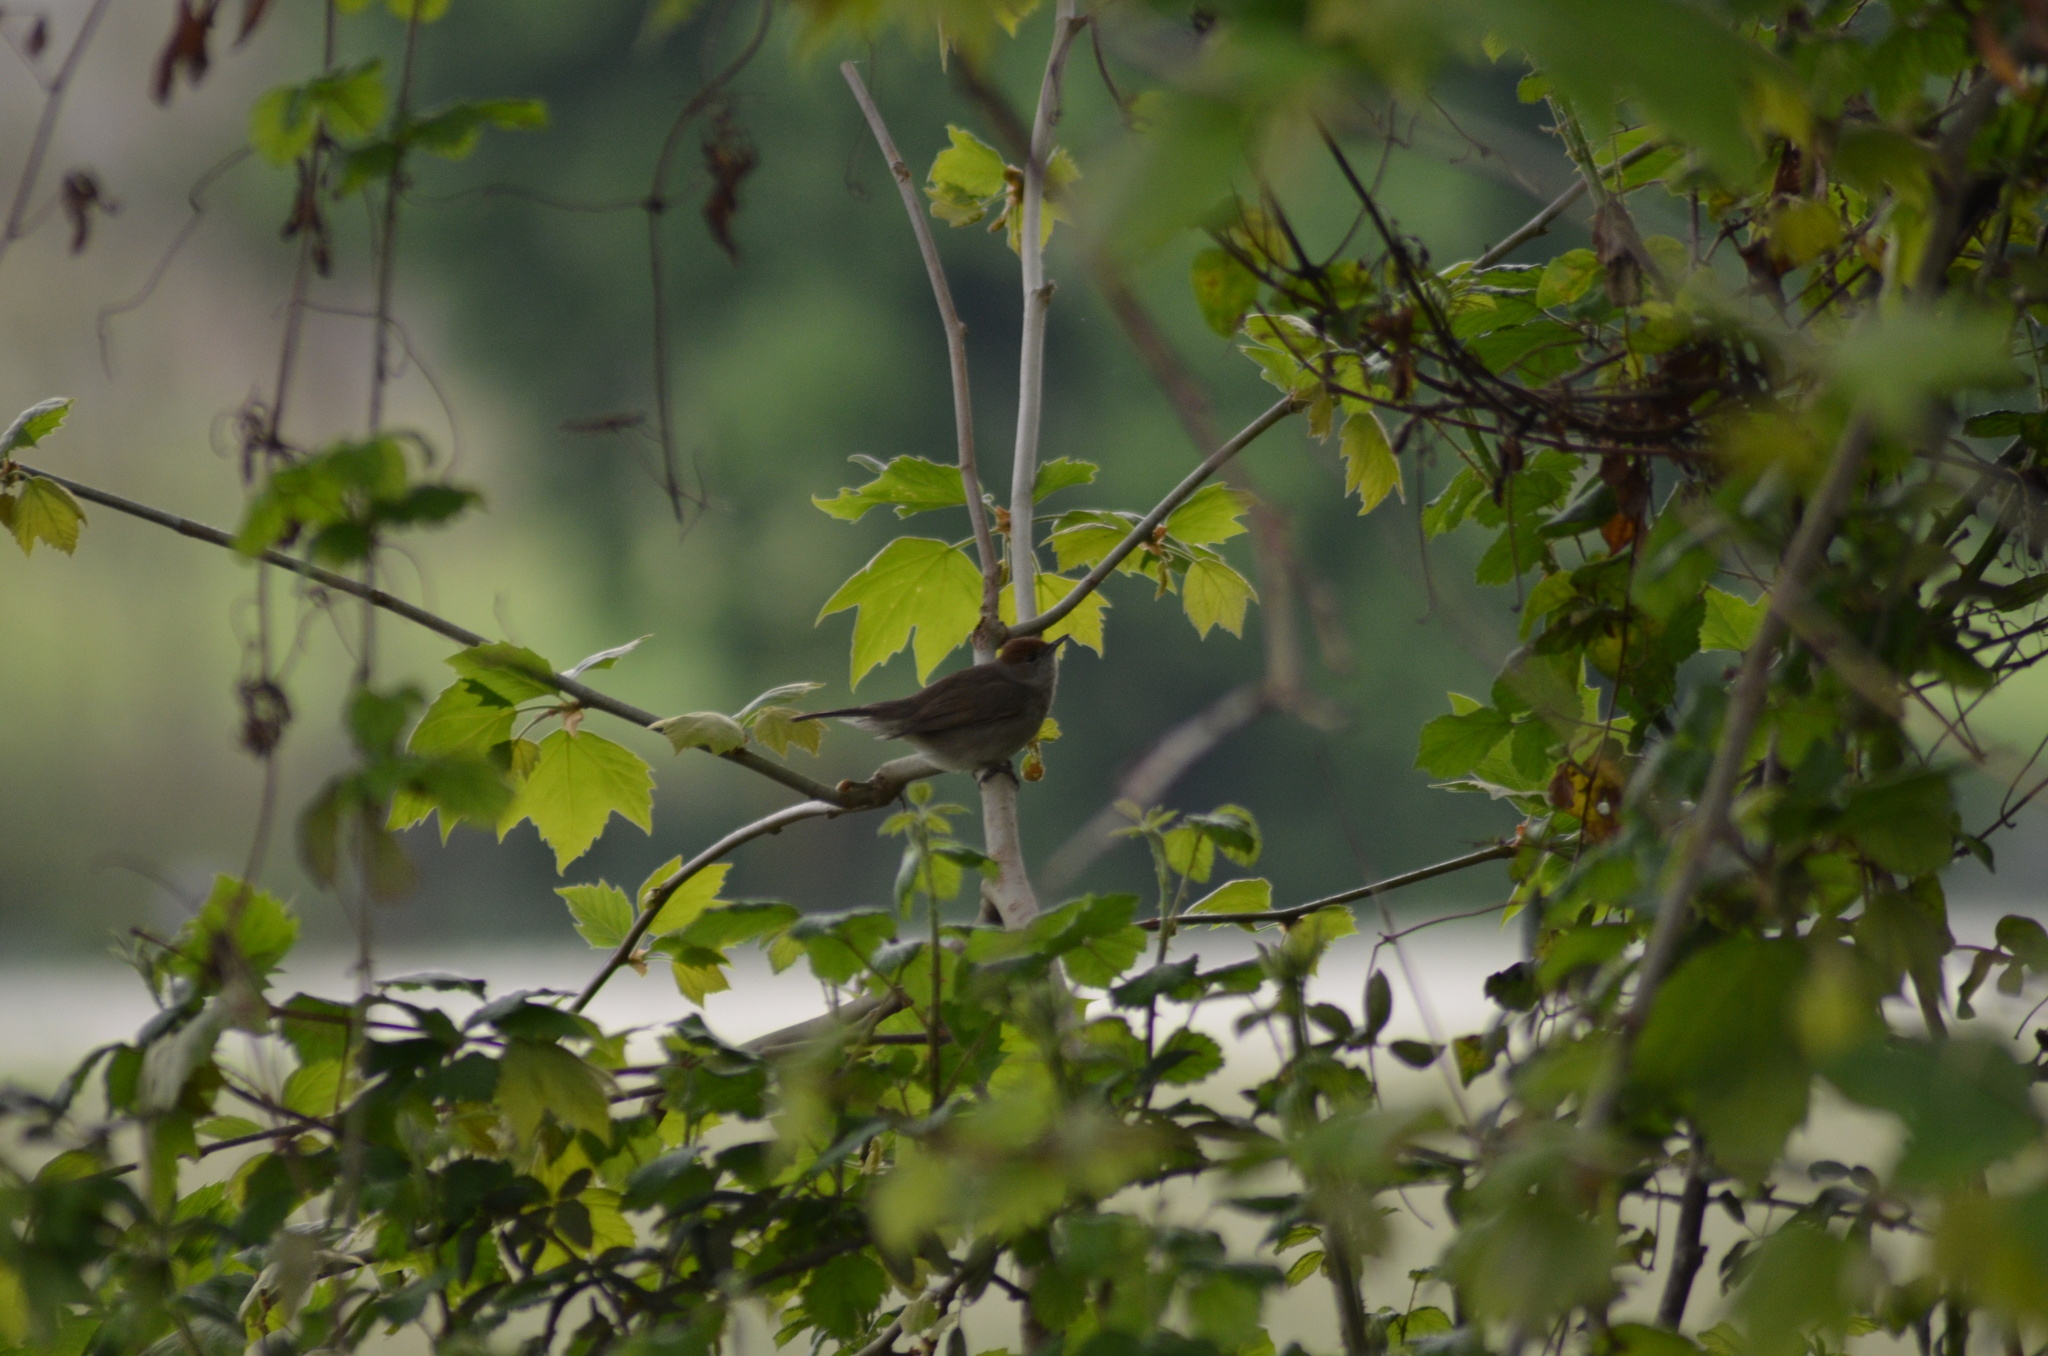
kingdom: Animalia
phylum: Chordata
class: Aves
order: Passeriformes
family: Sylviidae
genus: Sylvia
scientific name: Sylvia atricapilla
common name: Eurasian blackcap
